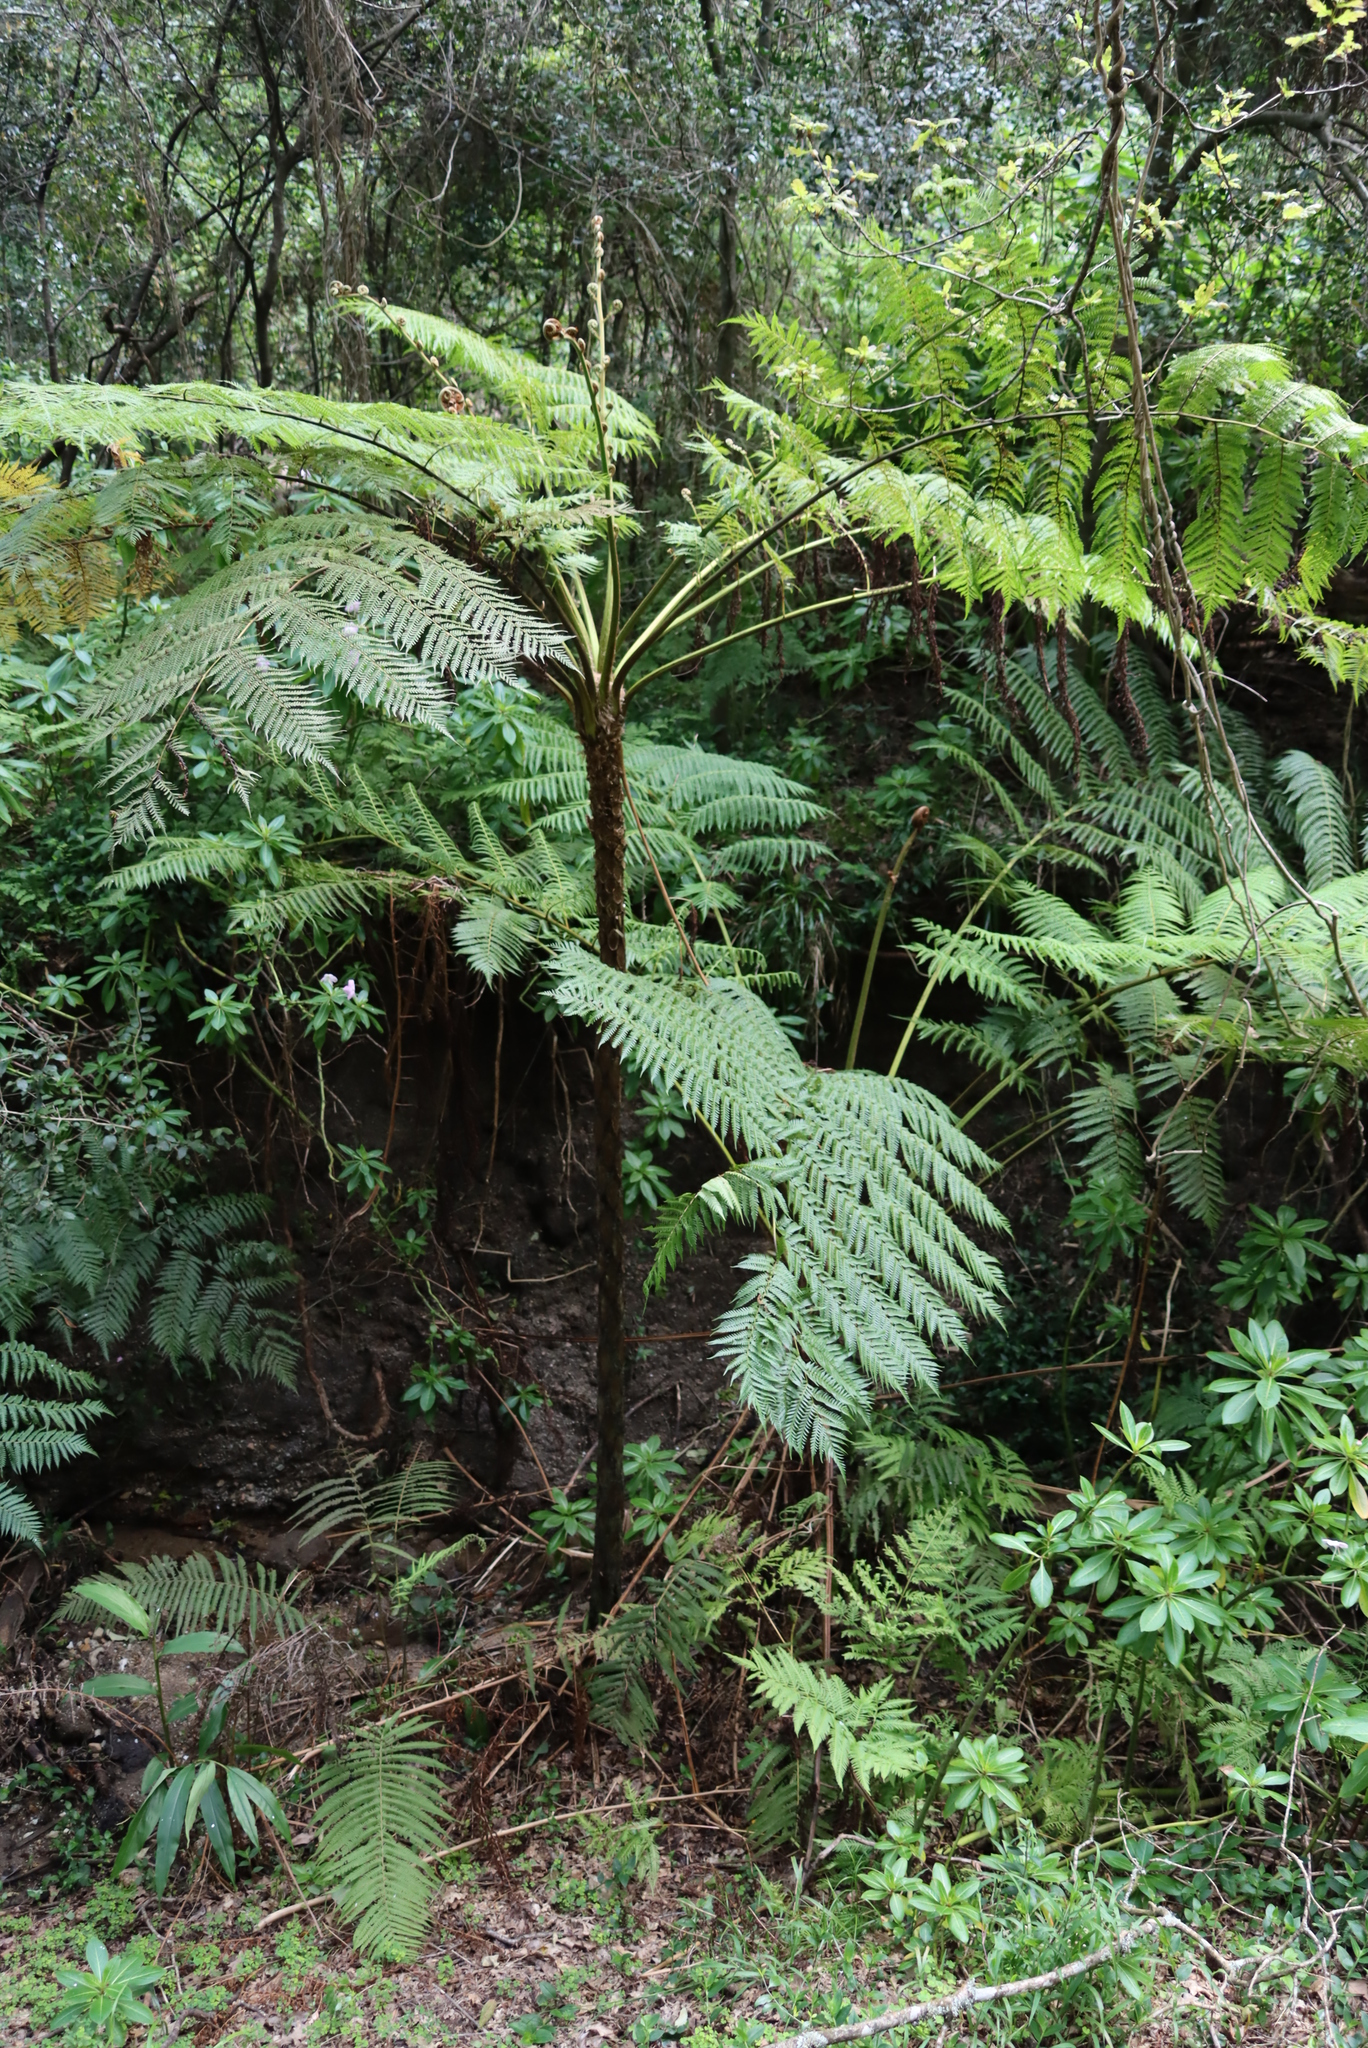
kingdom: Plantae
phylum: Tracheophyta
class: Polypodiopsida
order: Cyatheales
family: Cyatheaceae
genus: Sphaeropteris
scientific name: Sphaeropteris cooperi
